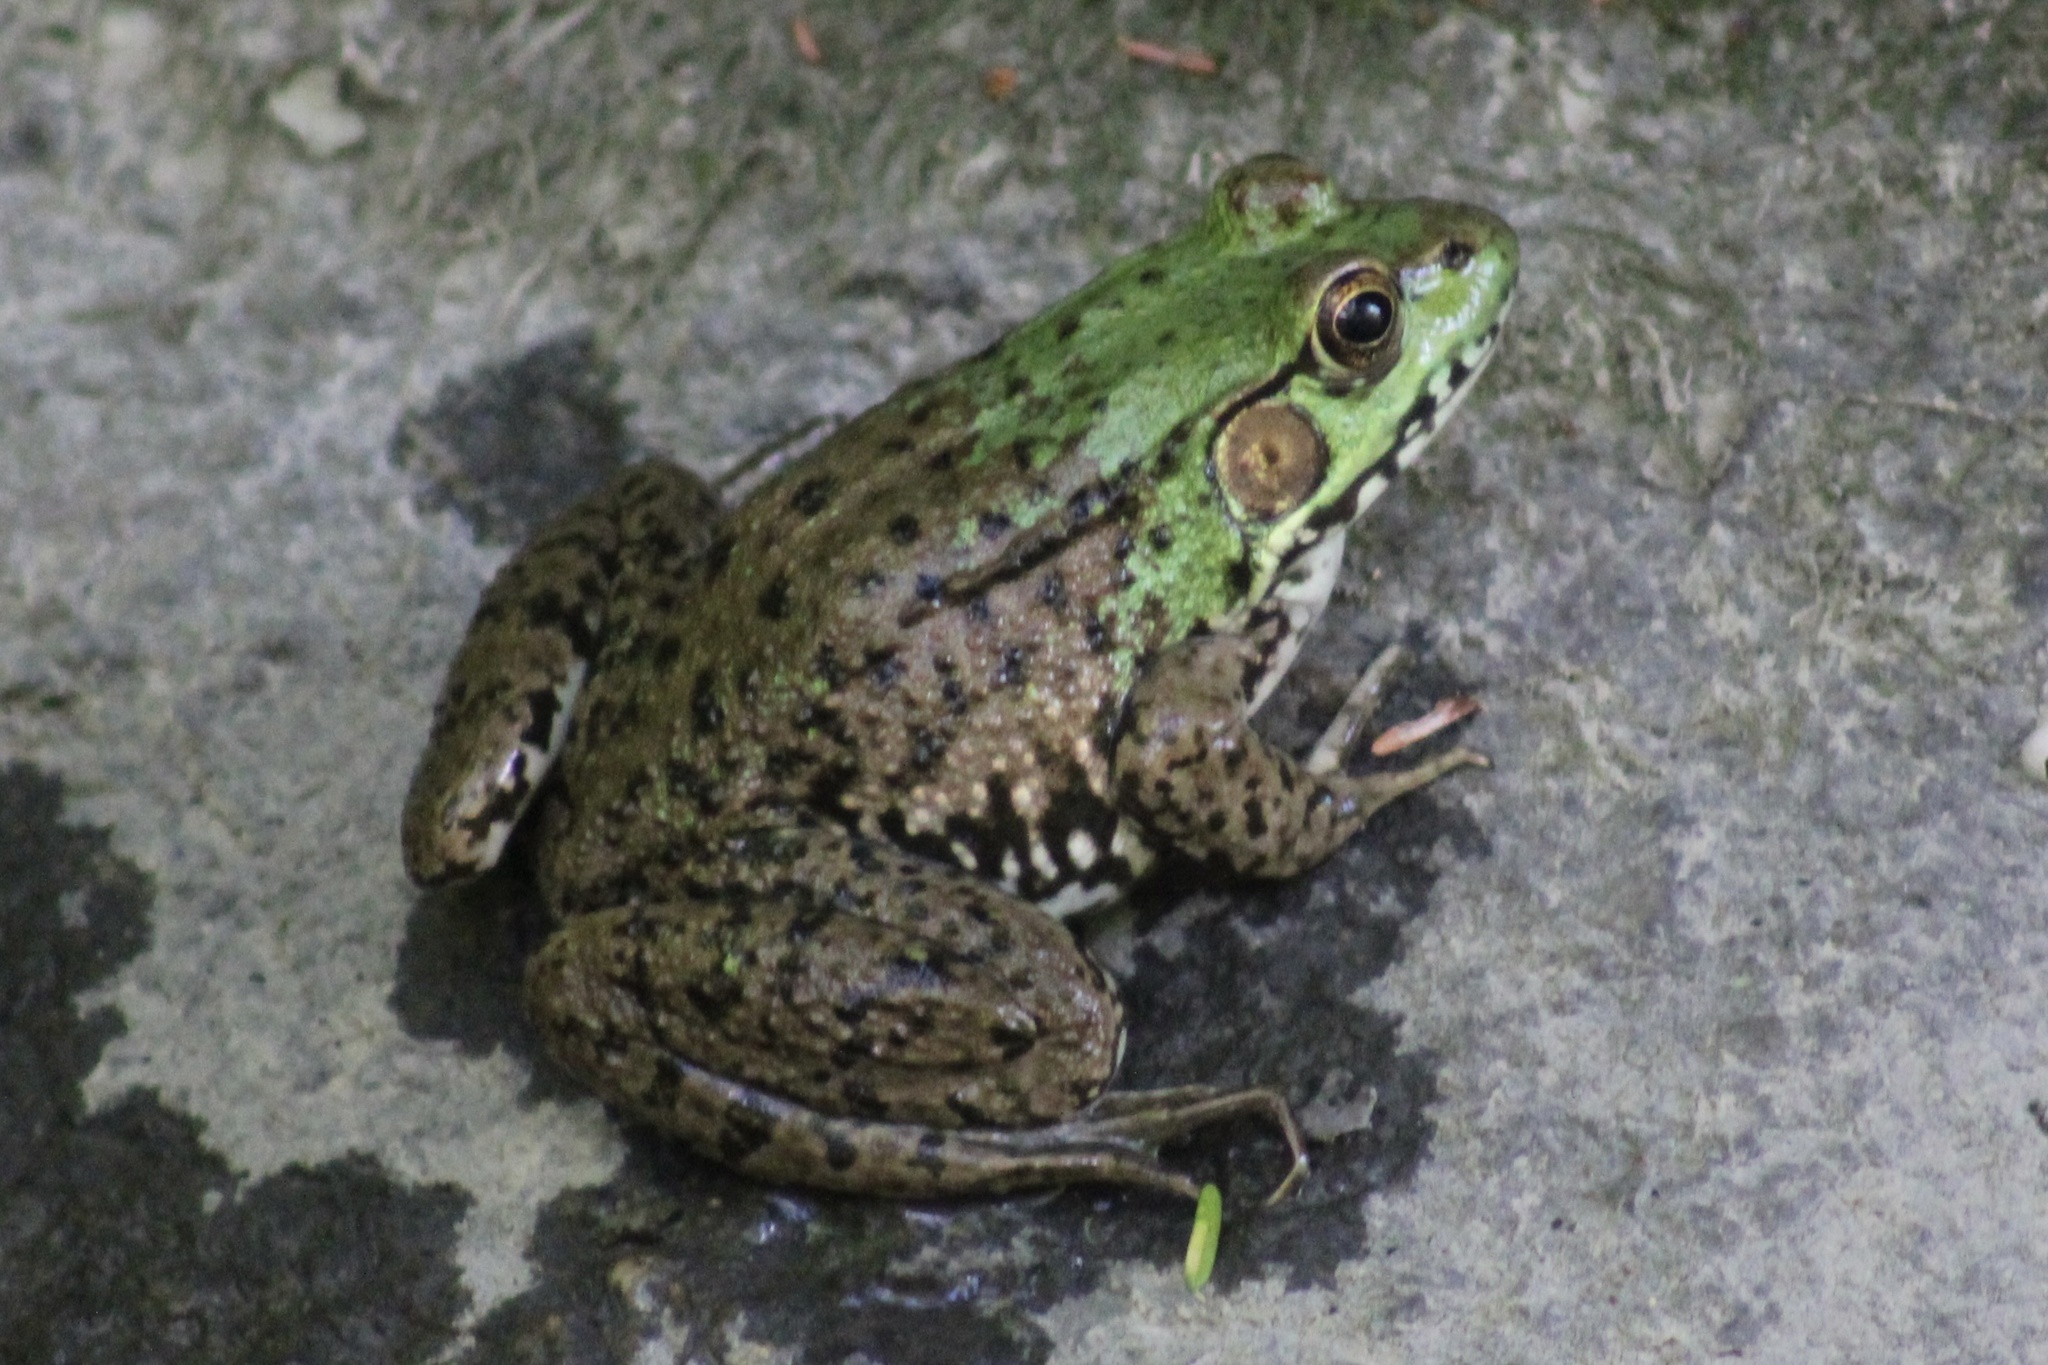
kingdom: Animalia
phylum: Chordata
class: Amphibia
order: Anura
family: Ranidae
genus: Lithobates
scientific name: Lithobates clamitans
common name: Green frog
